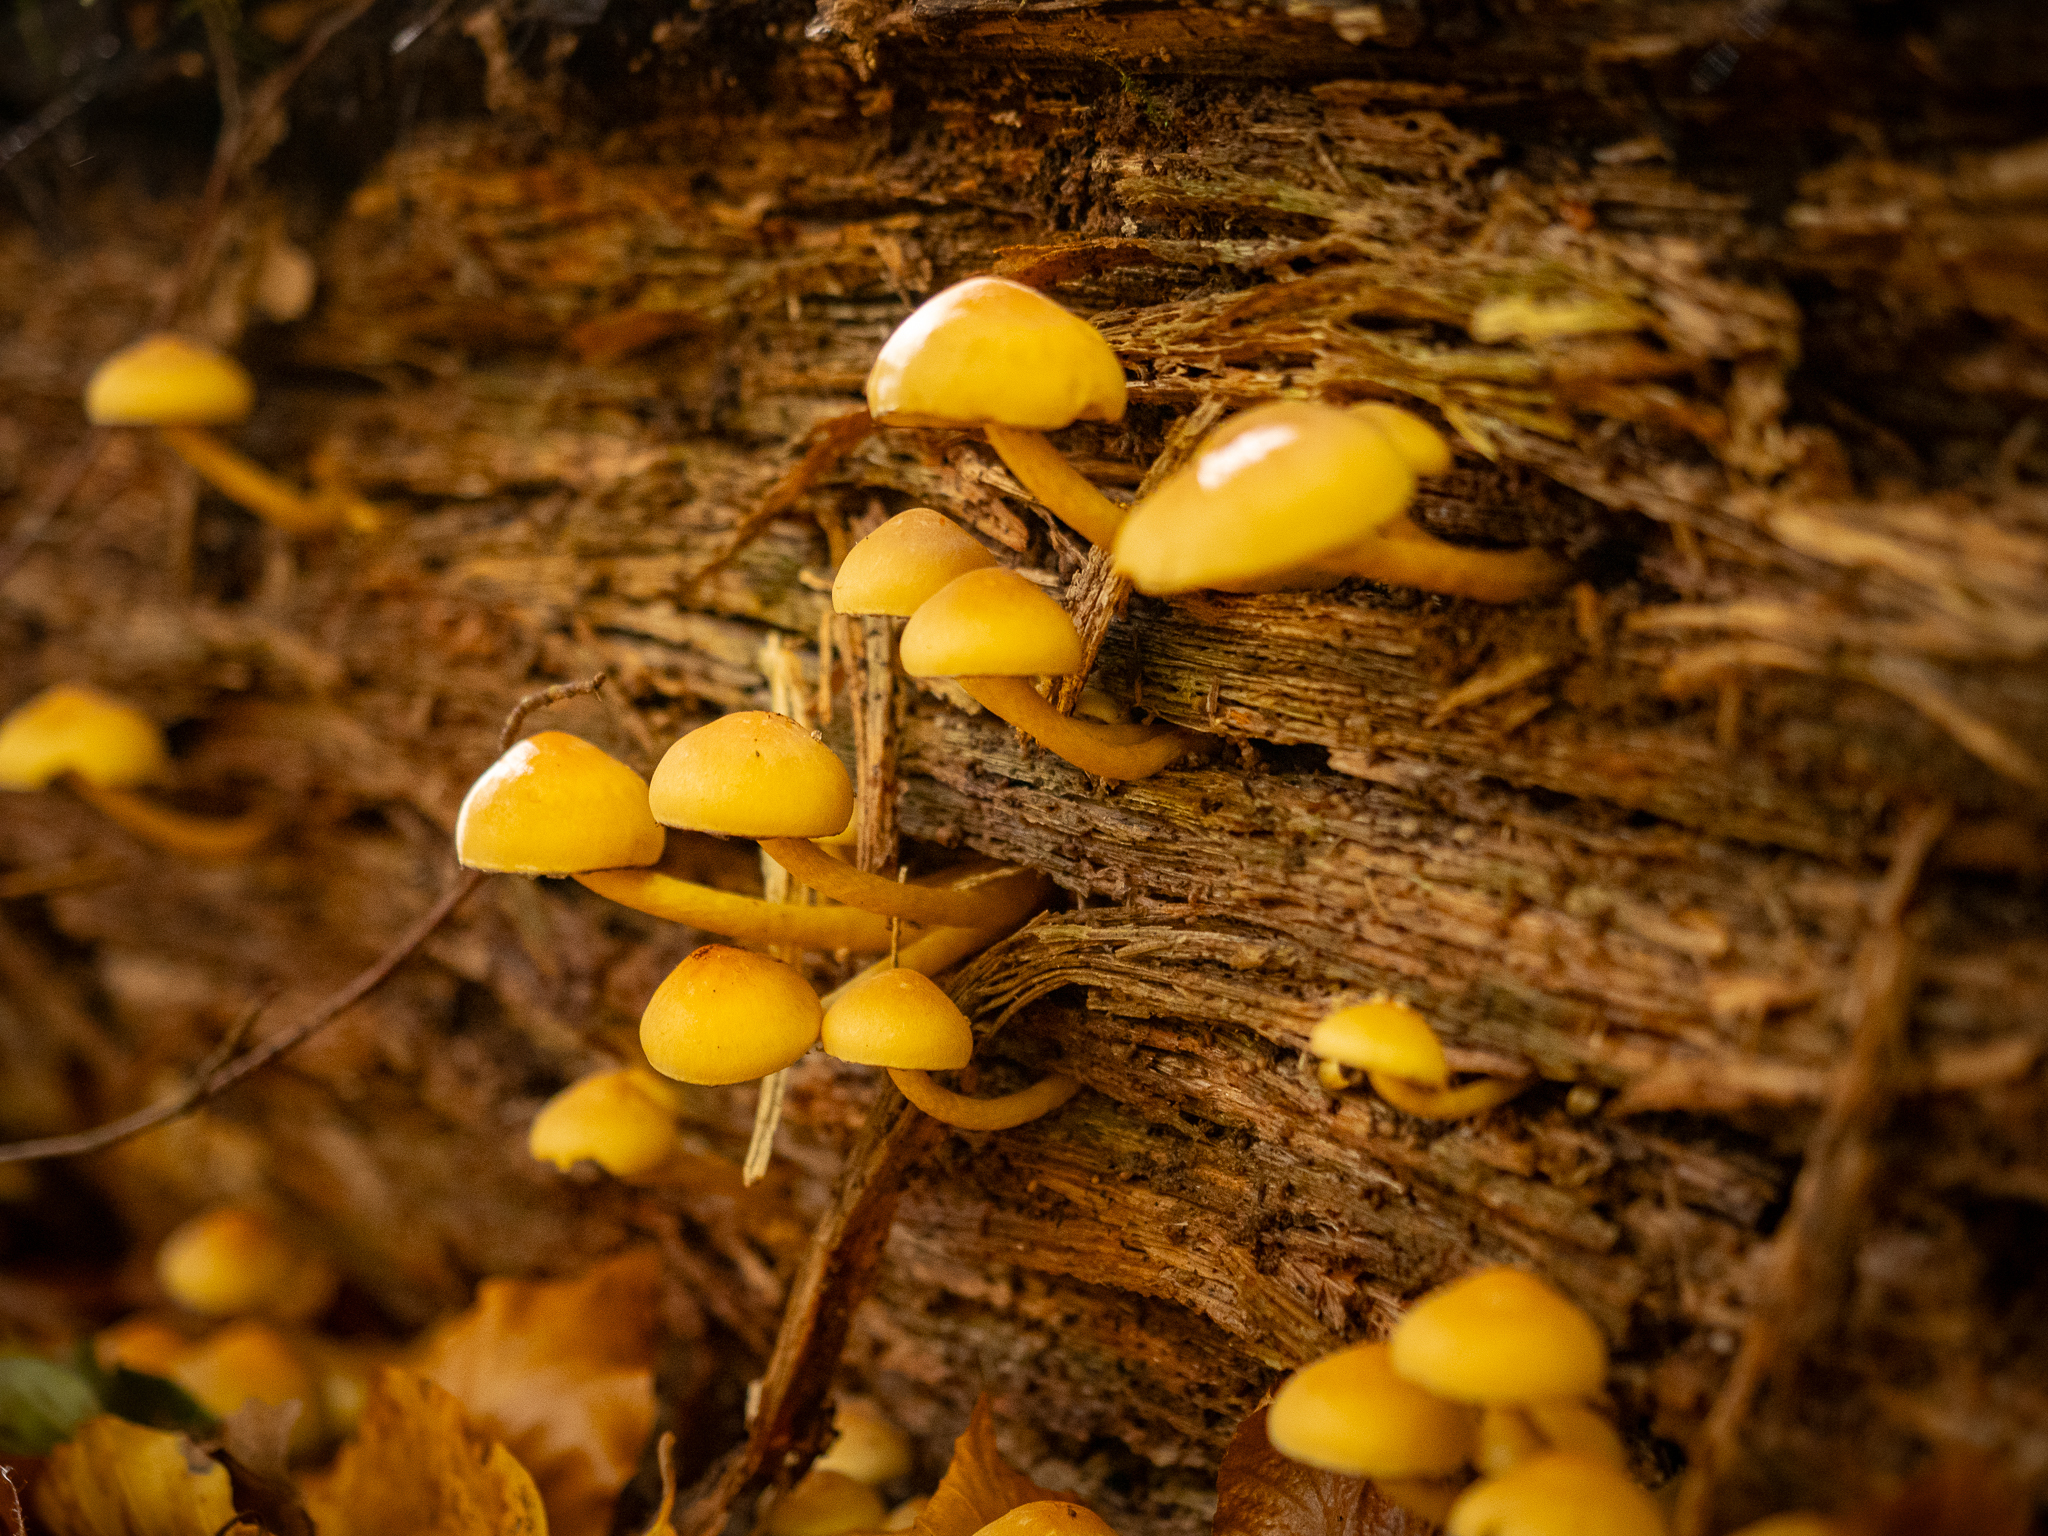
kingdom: Fungi
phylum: Basidiomycota
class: Agaricomycetes
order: Agaricales
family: Strophariaceae
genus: Hypholoma
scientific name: Hypholoma fasciculare
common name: Sulphur tuft
